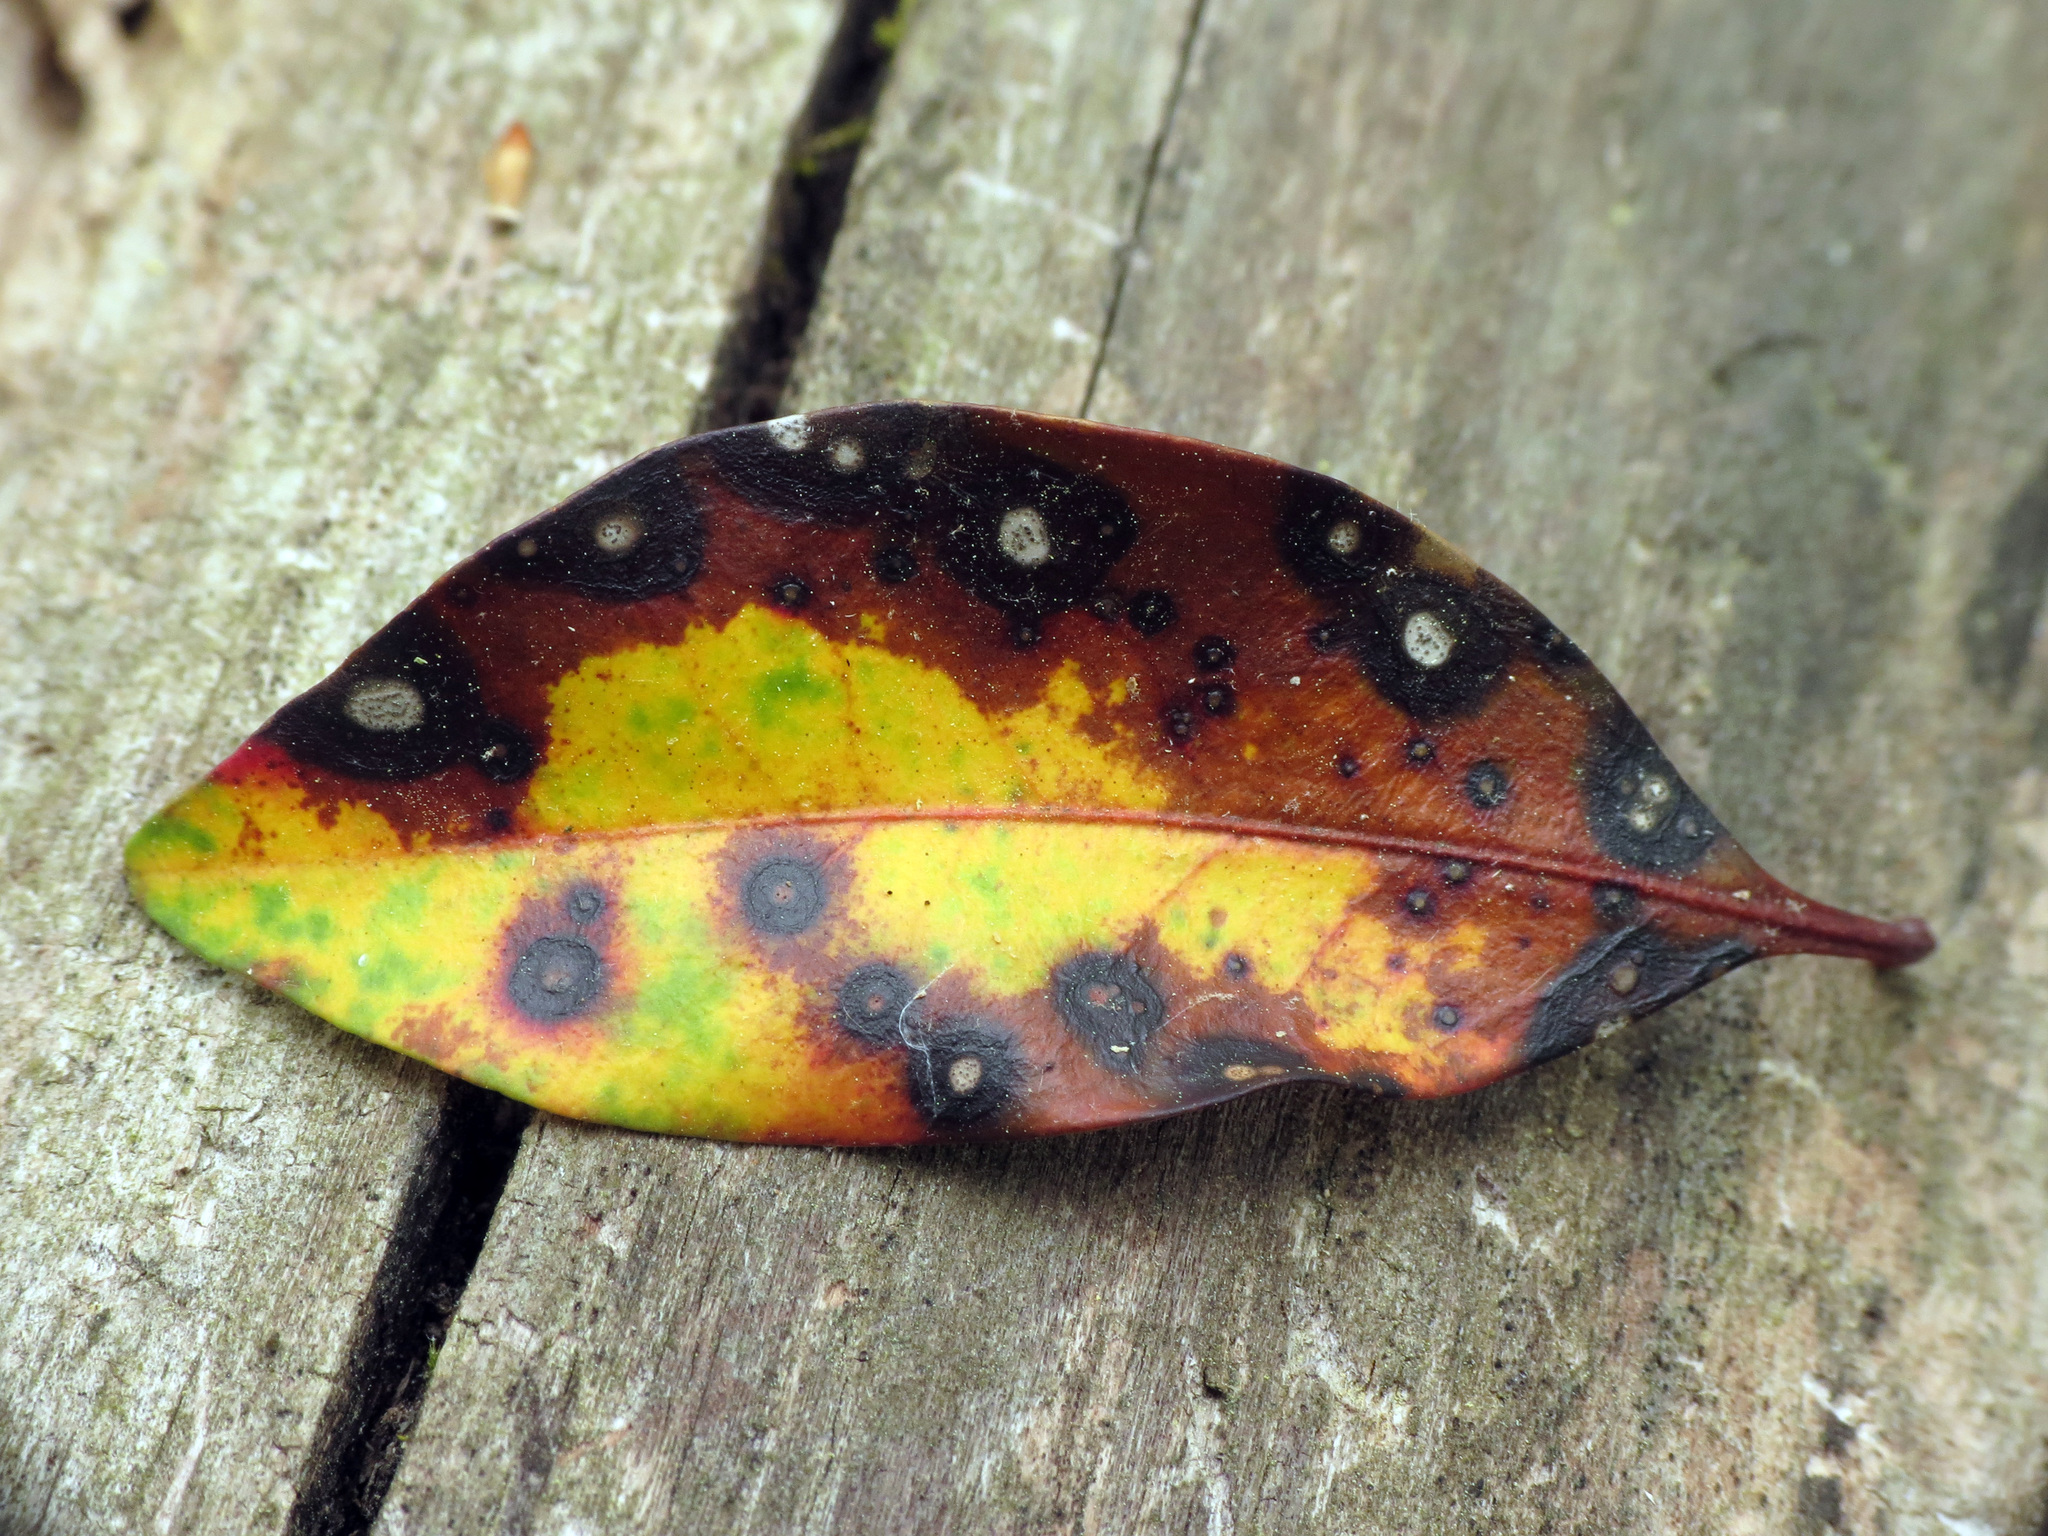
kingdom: Fungi
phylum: Ascomycota
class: Dothideomycetes
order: Mycosphaerellales
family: Mycosphaerellaceae
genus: Mycosphaerella
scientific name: Mycosphaerella colorata
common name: Mountain laurel leaf spot
